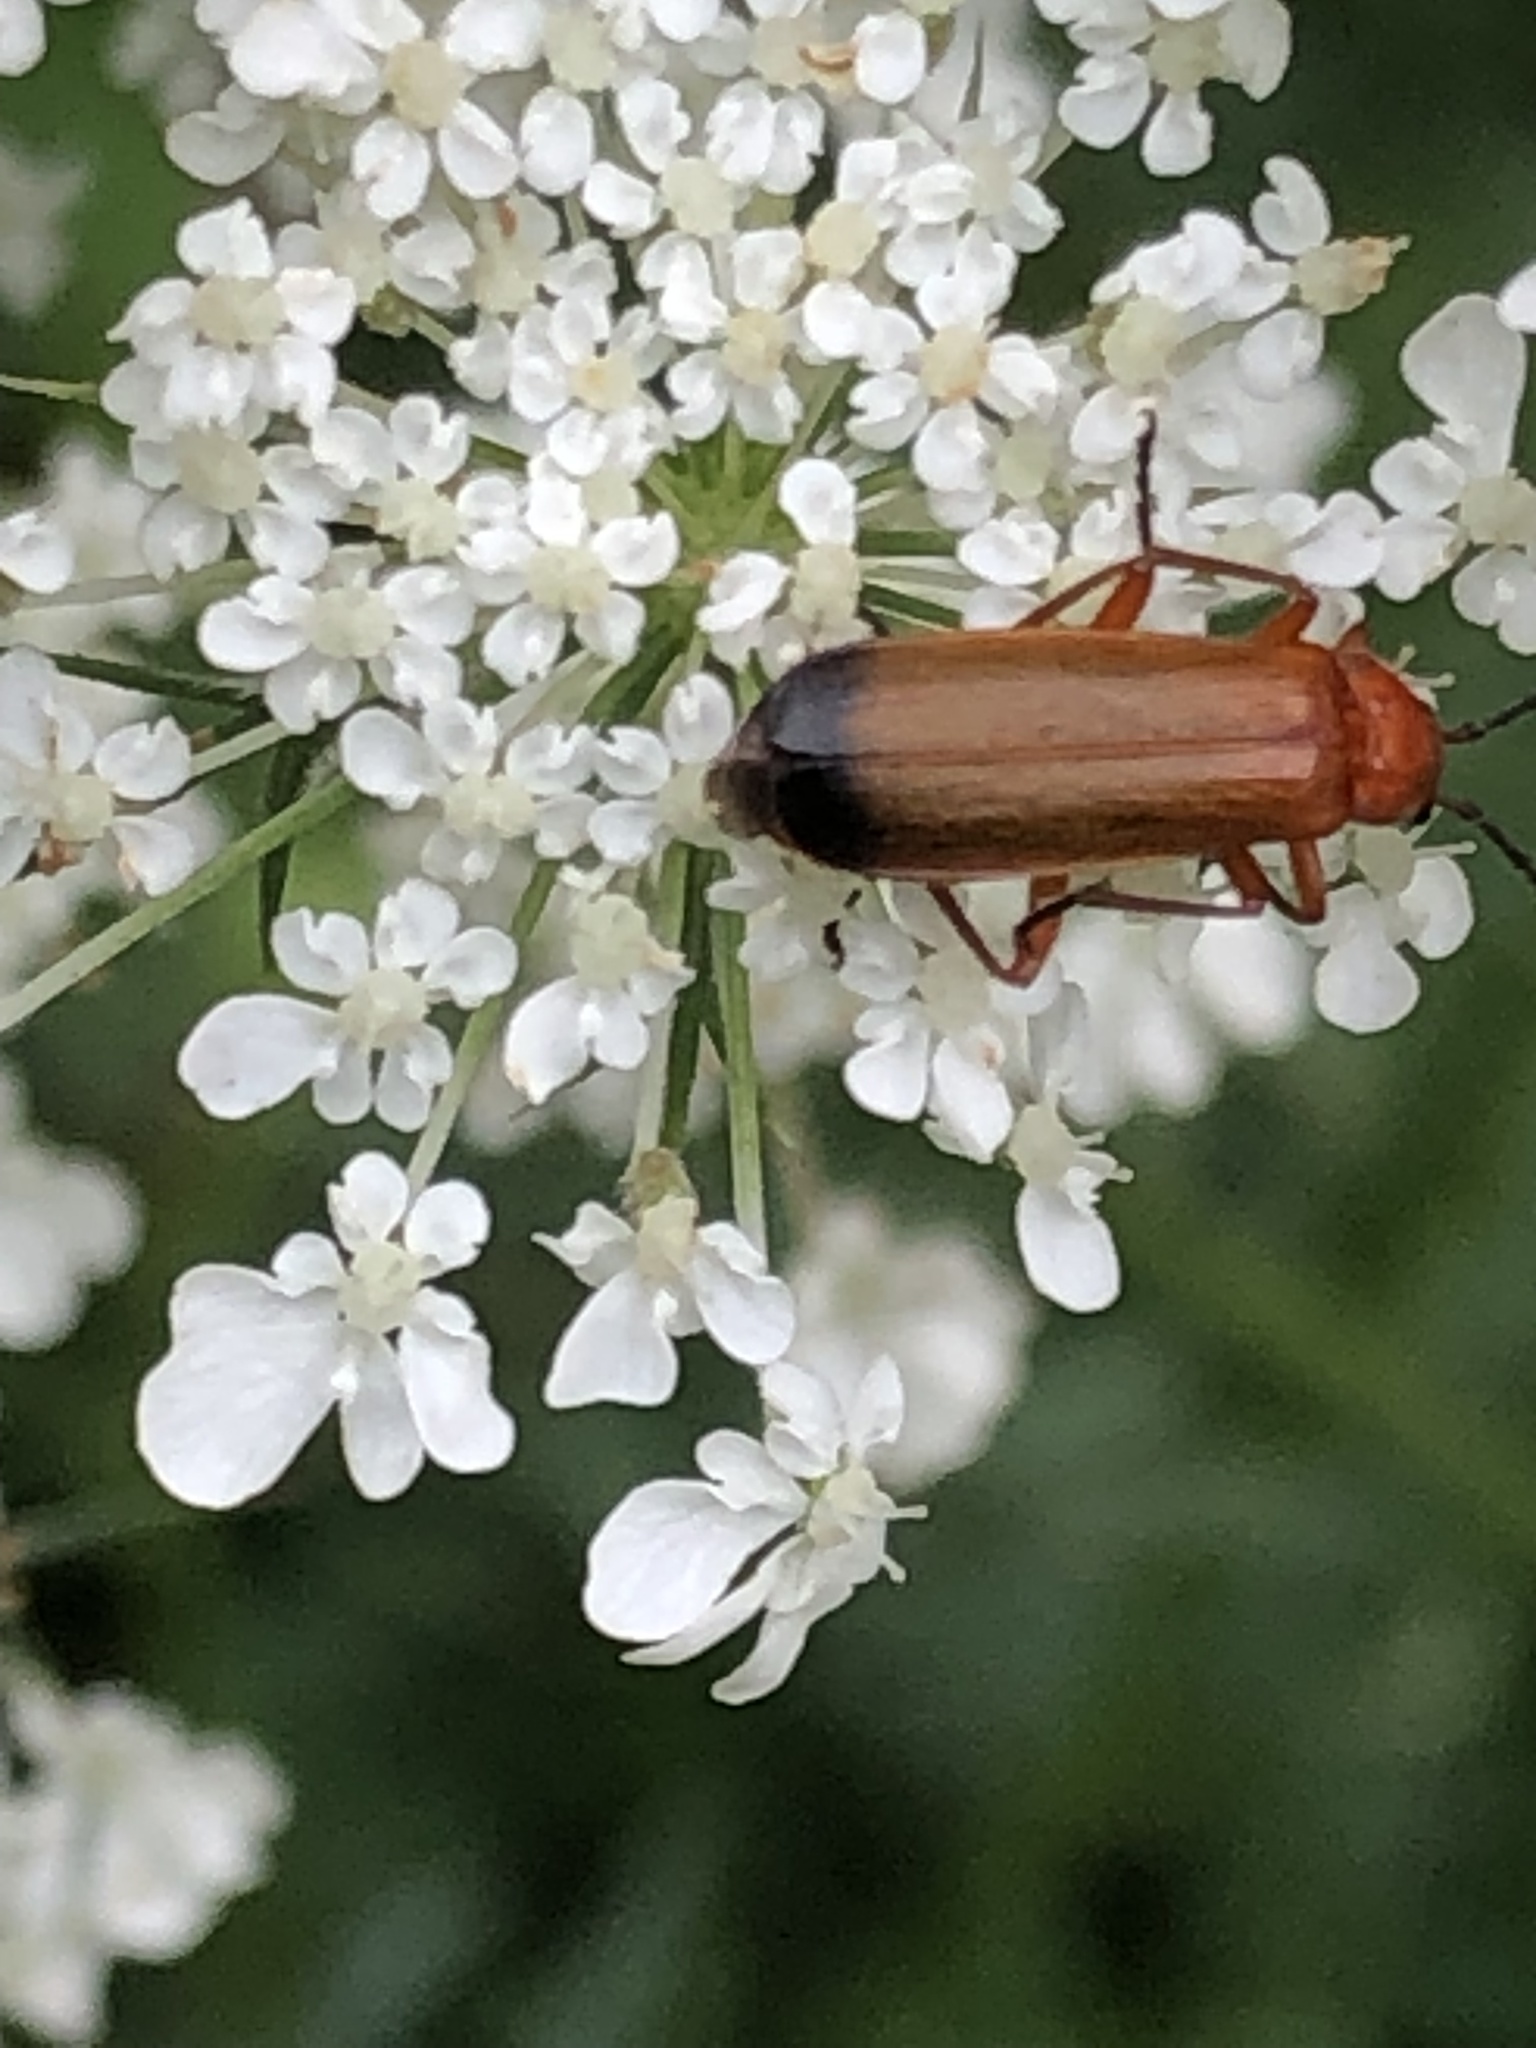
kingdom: Animalia
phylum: Arthropoda
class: Insecta
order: Coleoptera
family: Cantharidae
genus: Rhagonycha
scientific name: Rhagonycha fulva
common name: Common red soldier beetle
